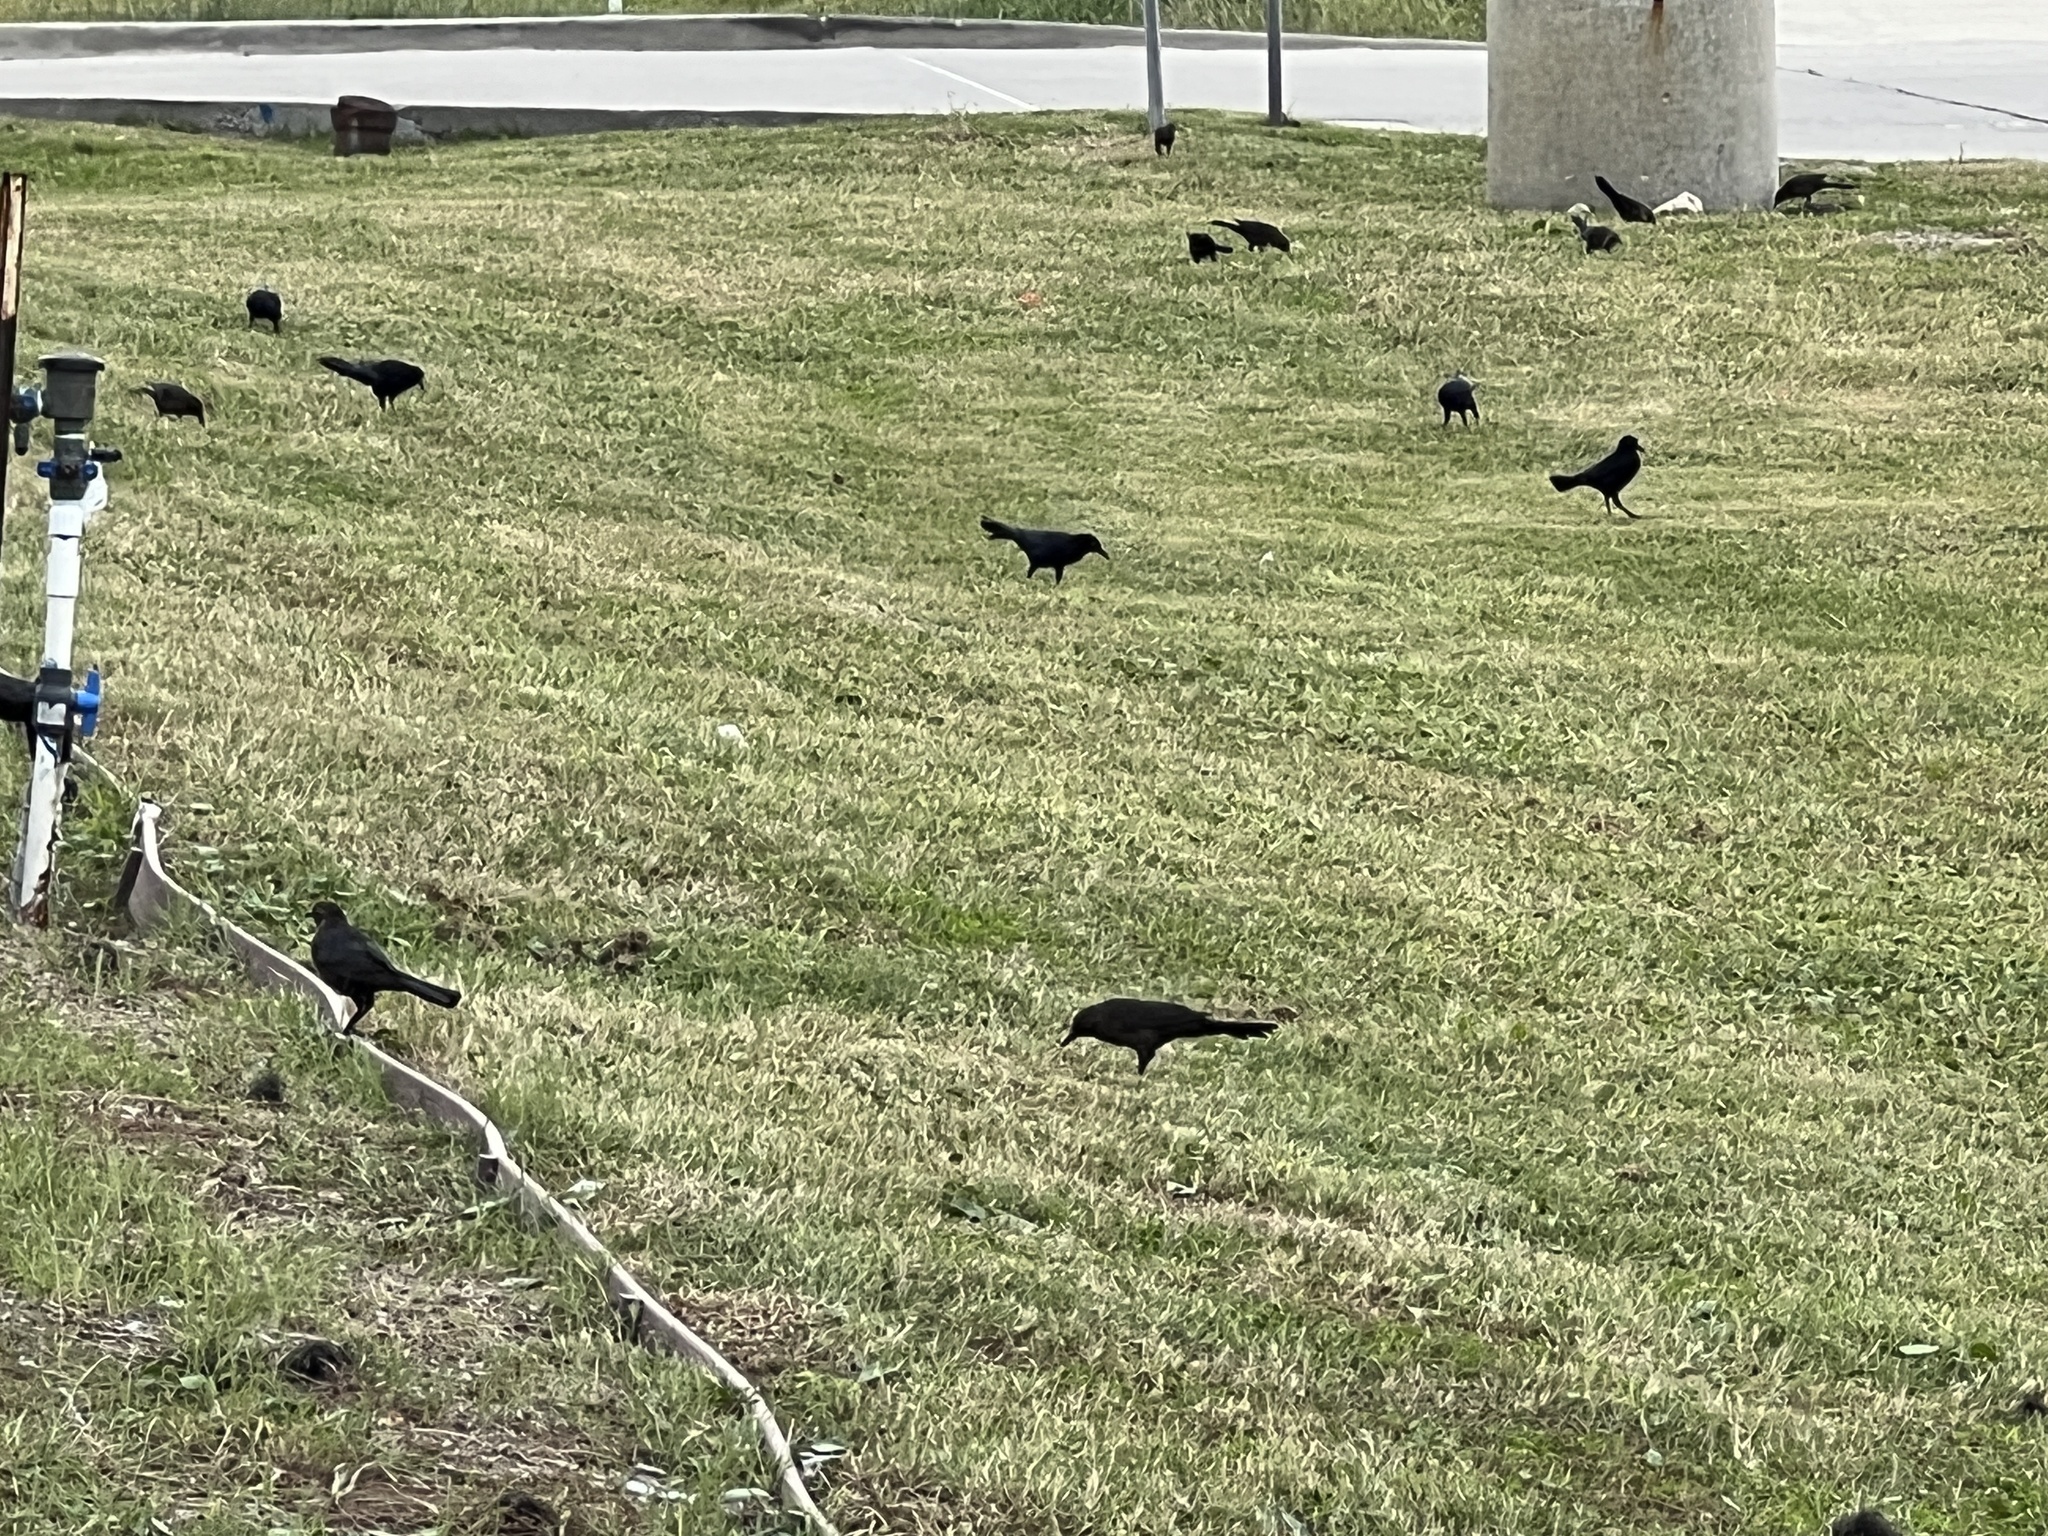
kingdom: Animalia
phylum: Chordata
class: Aves
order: Passeriformes
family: Icteridae
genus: Quiscalus
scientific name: Quiscalus mexicanus
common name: Great-tailed grackle
